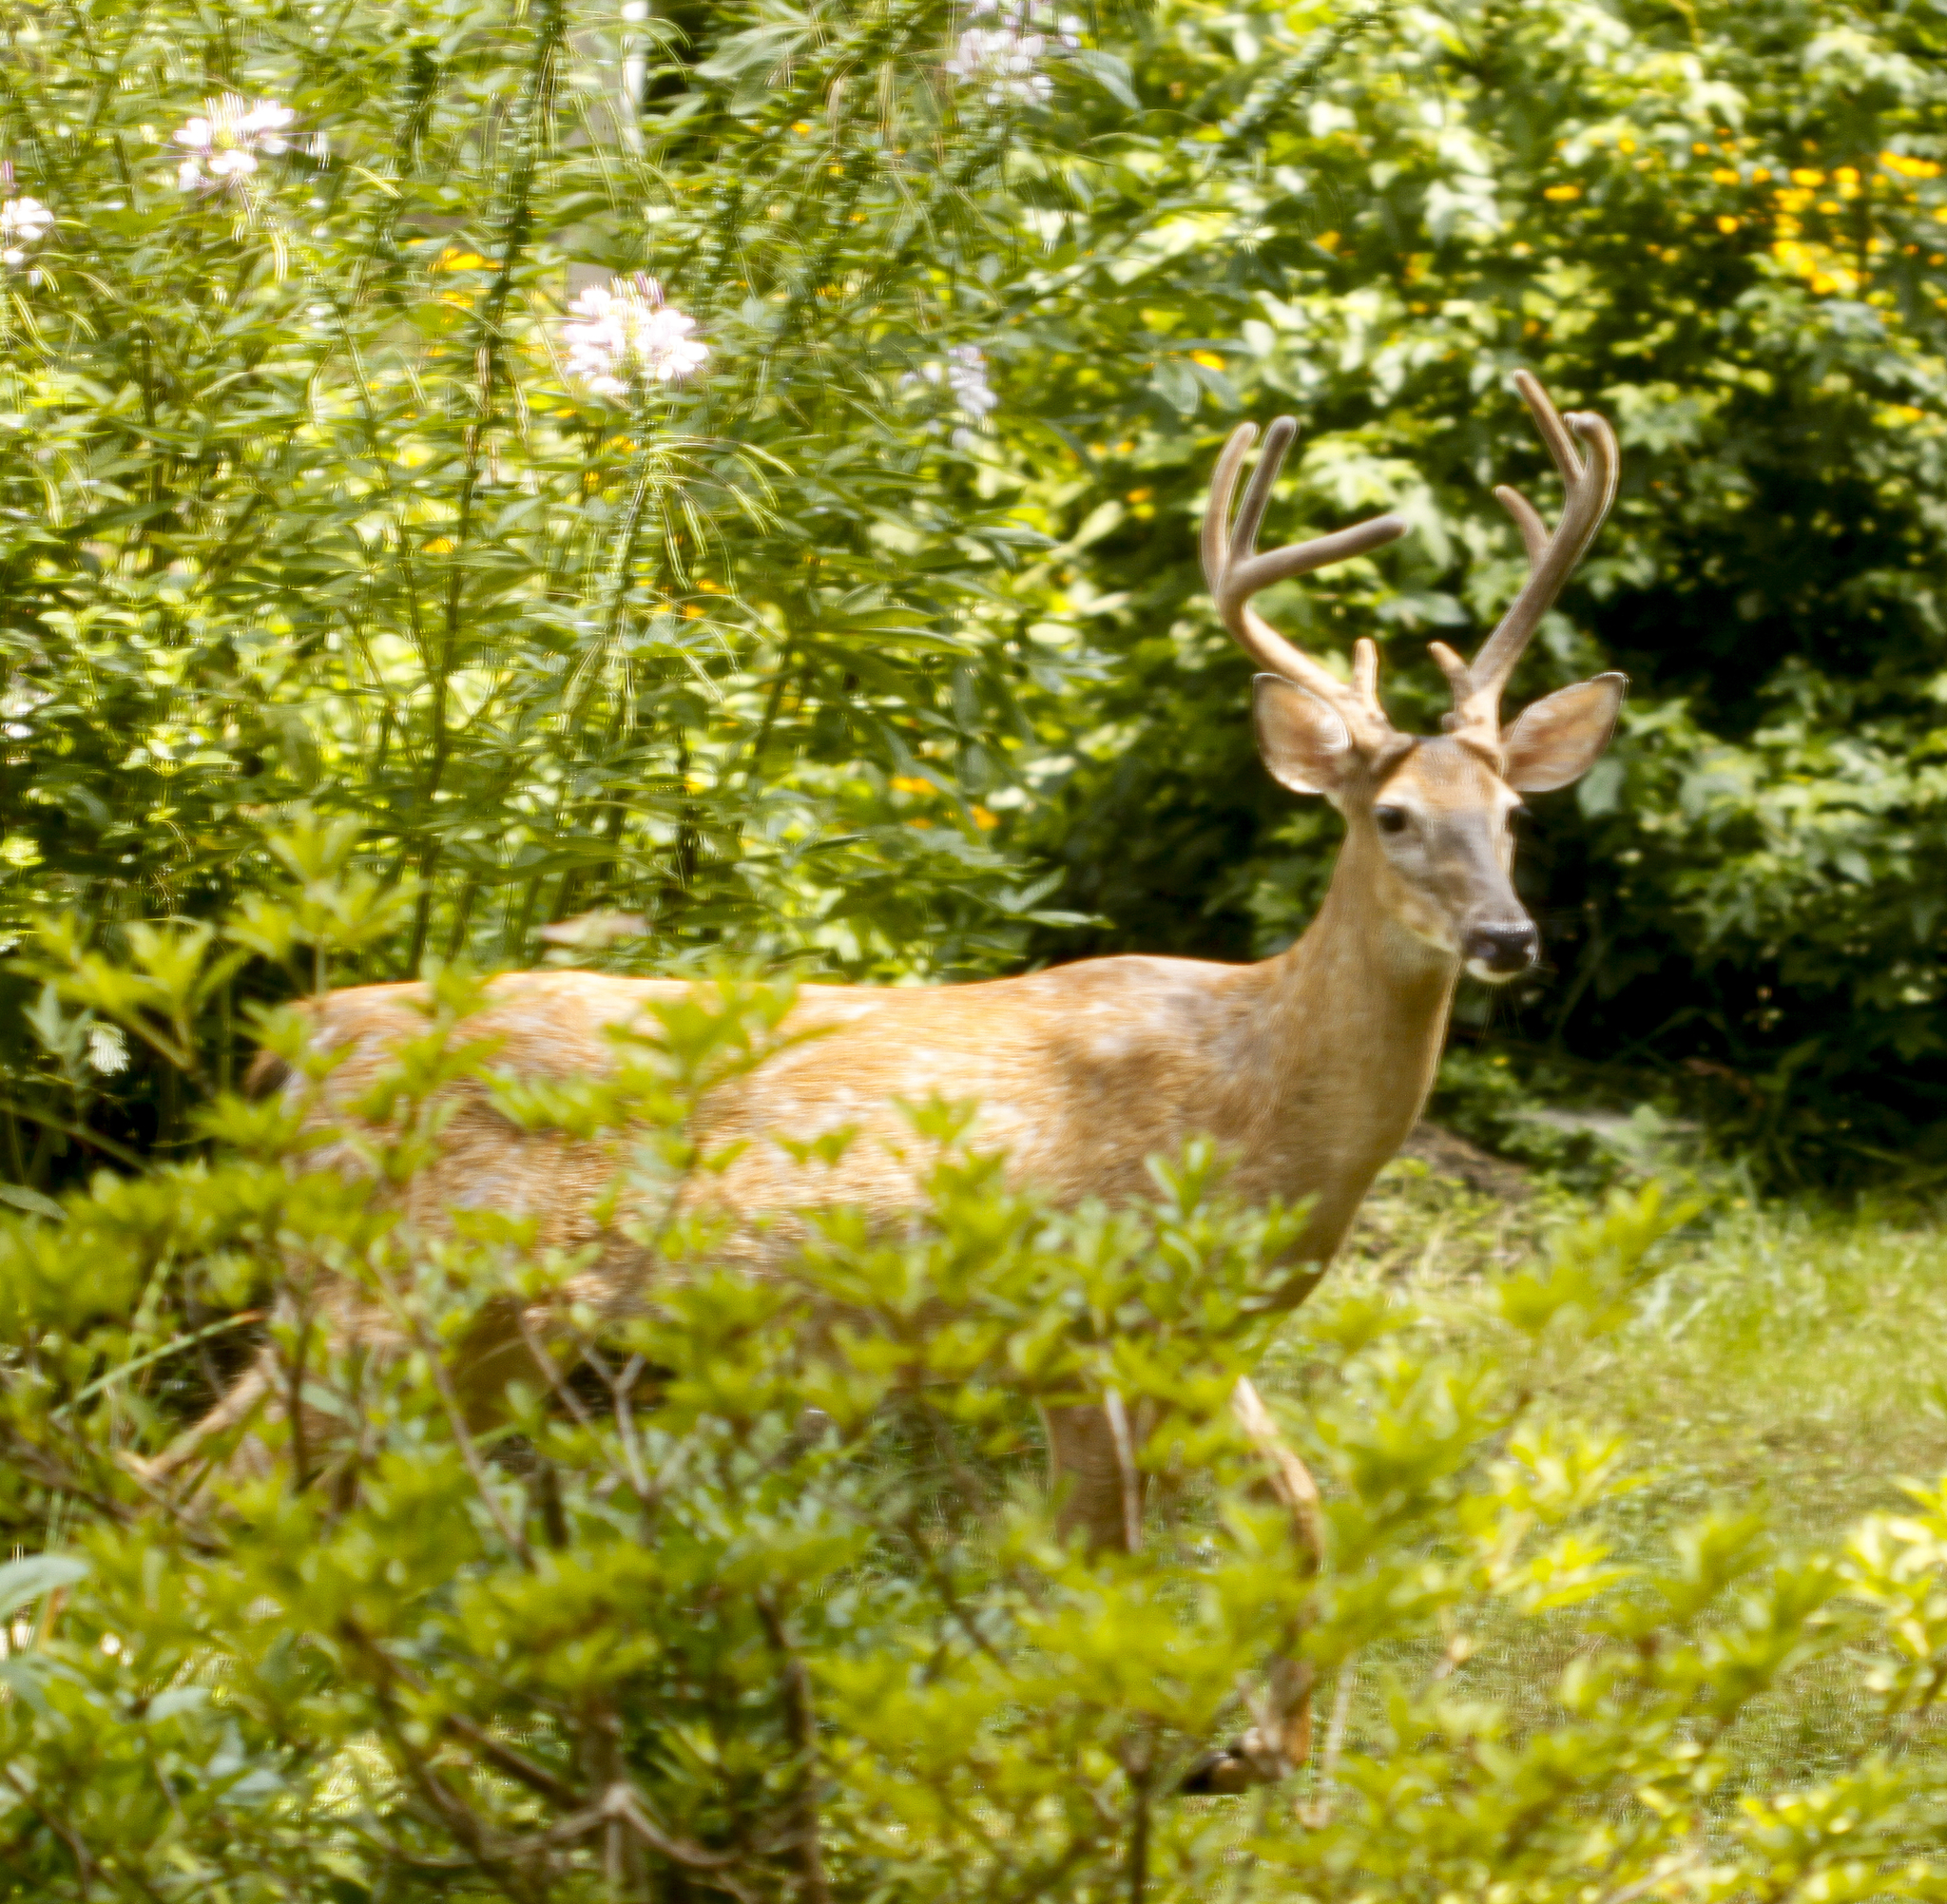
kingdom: Animalia
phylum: Chordata
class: Mammalia
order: Artiodactyla
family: Cervidae
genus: Odocoileus
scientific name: Odocoileus virginianus
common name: White-tailed deer
